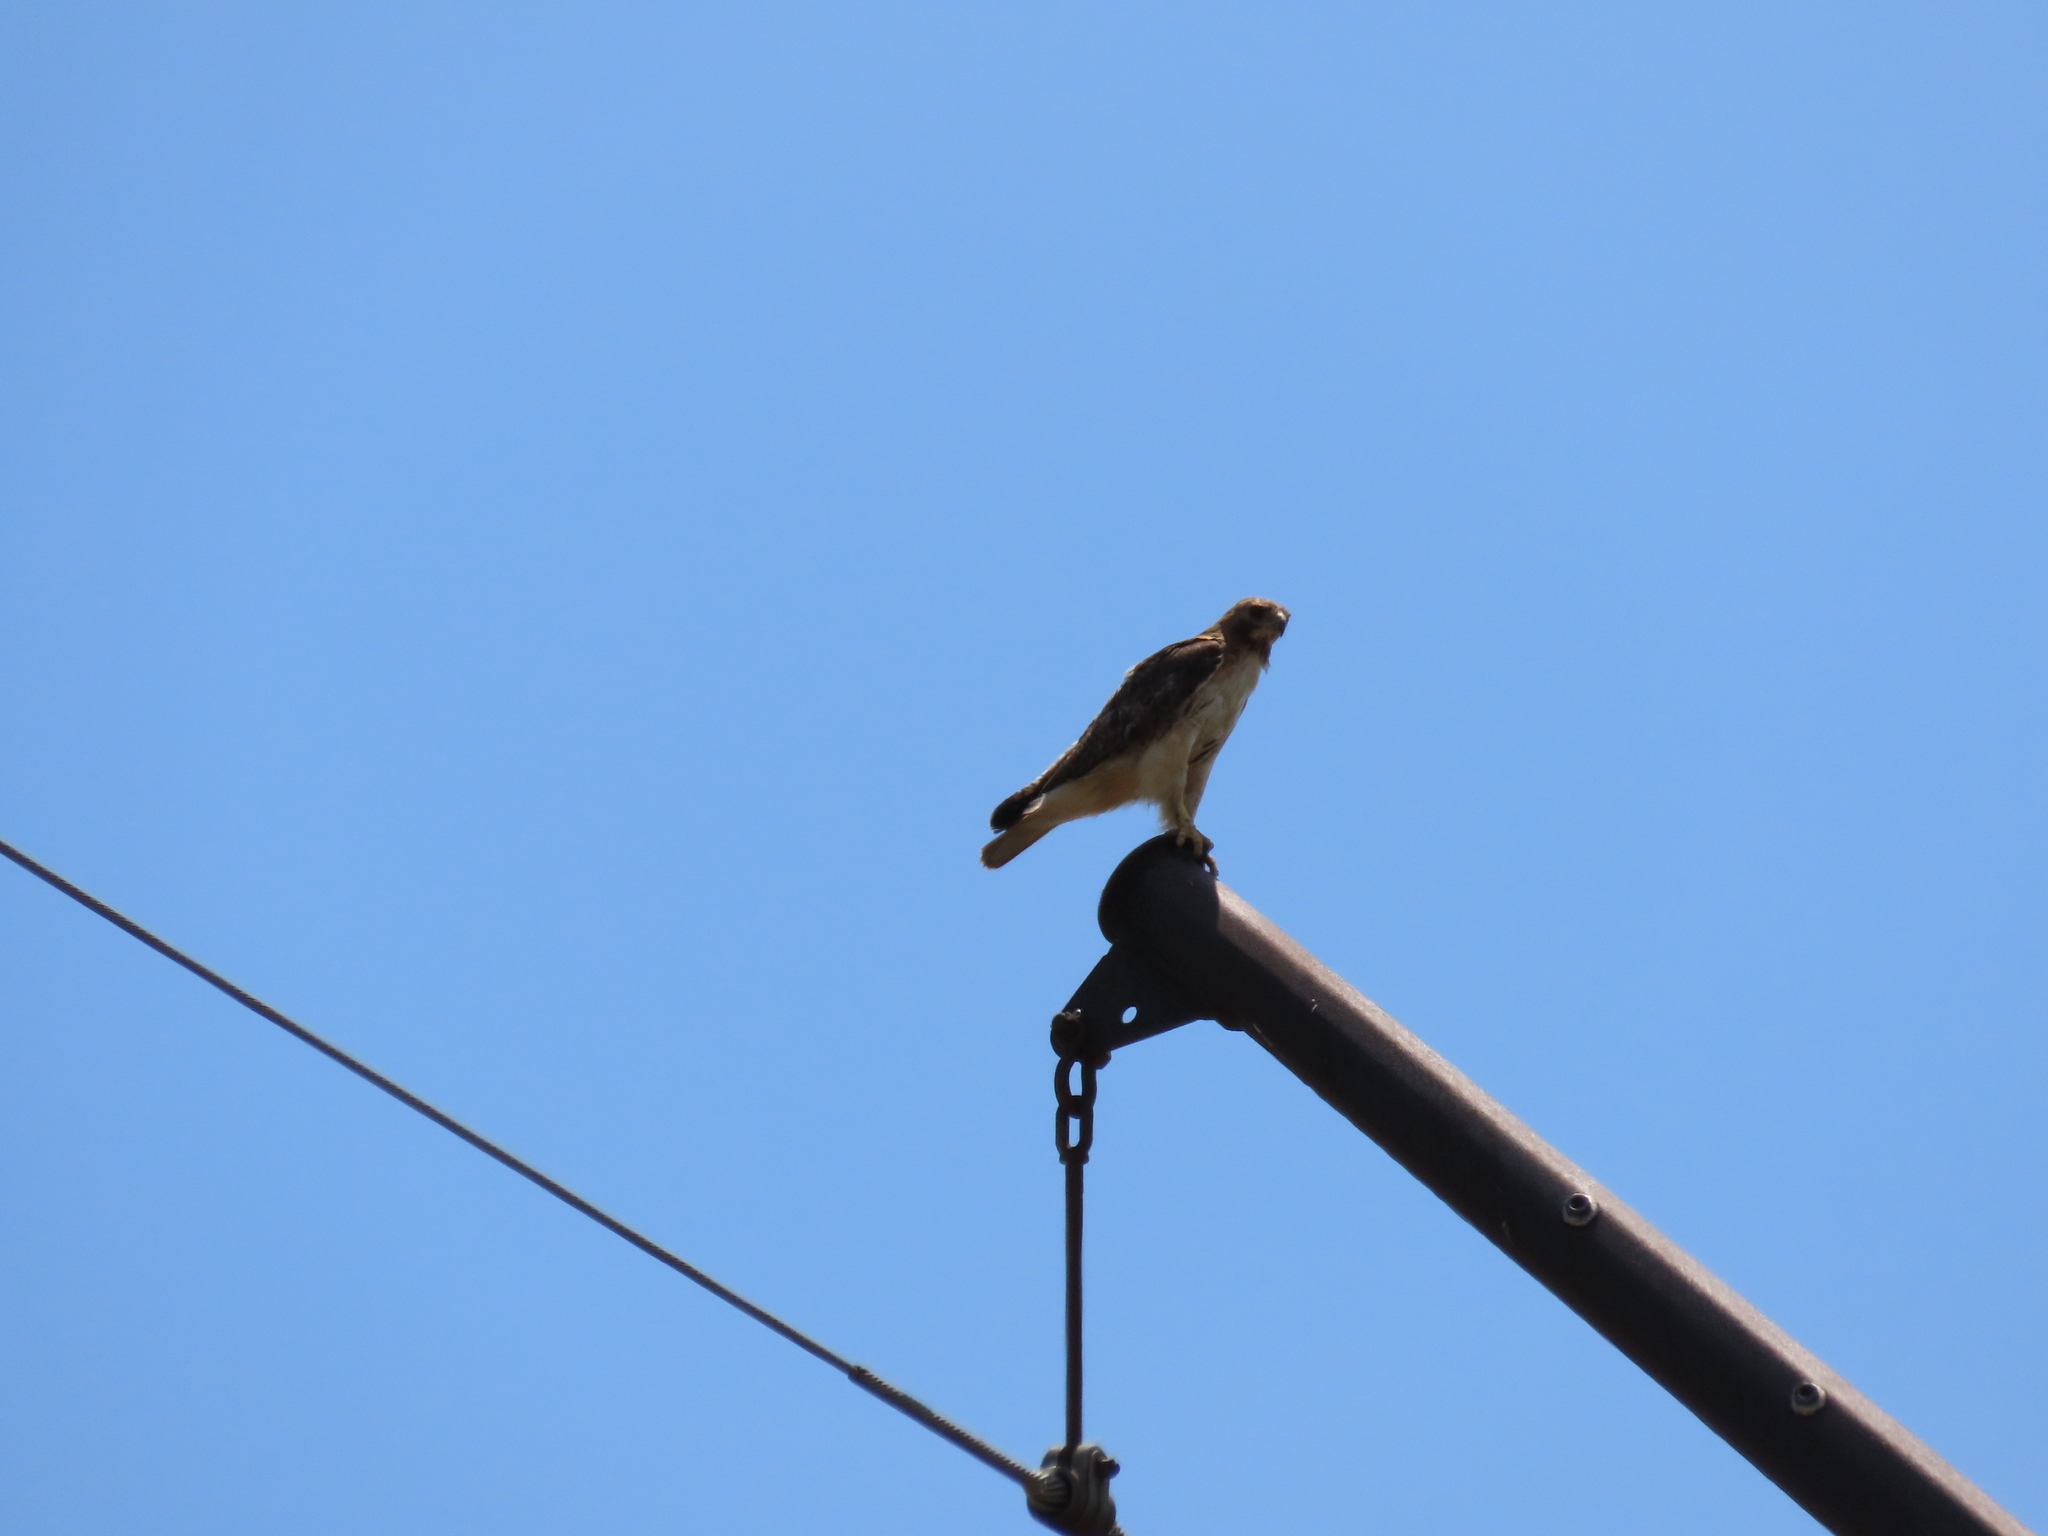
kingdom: Animalia
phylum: Chordata
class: Aves
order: Accipitriformes
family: Accipitridae
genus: Buteo
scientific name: Buteo jamaicensis
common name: Red-tailed hawk
